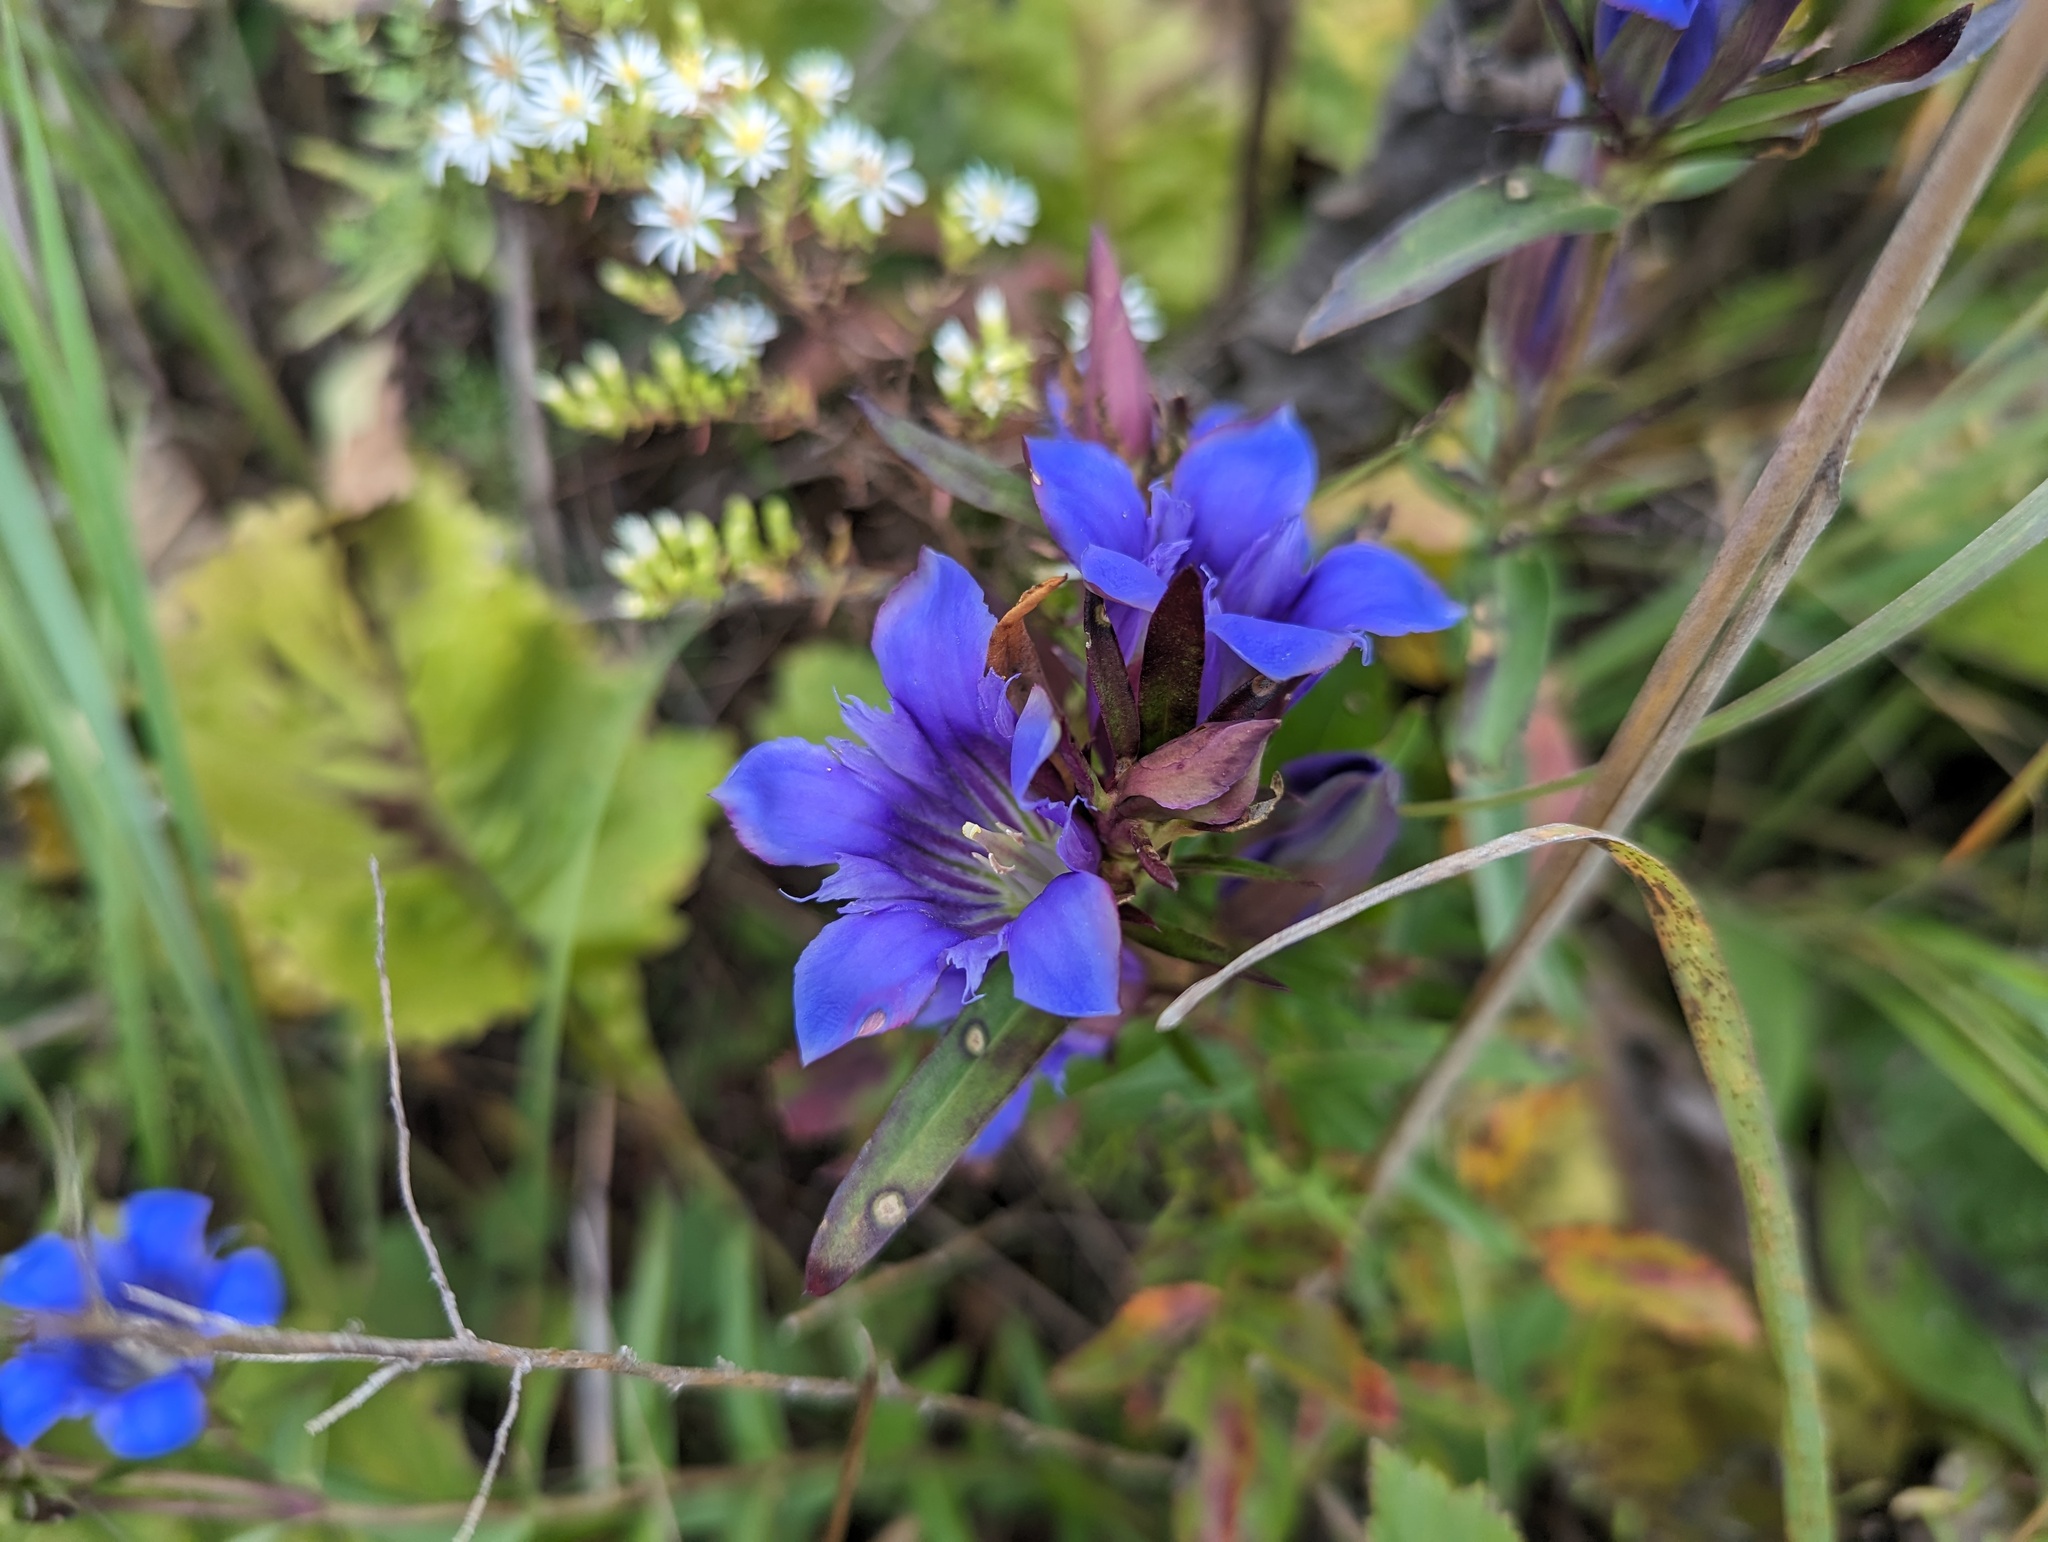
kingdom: Plantae
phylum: Tracheophyta
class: Magnoliopsida
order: Gentianales
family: Gentianaceae
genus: Gentiana
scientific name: Gentiana puberulenta
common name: Downy gentian
